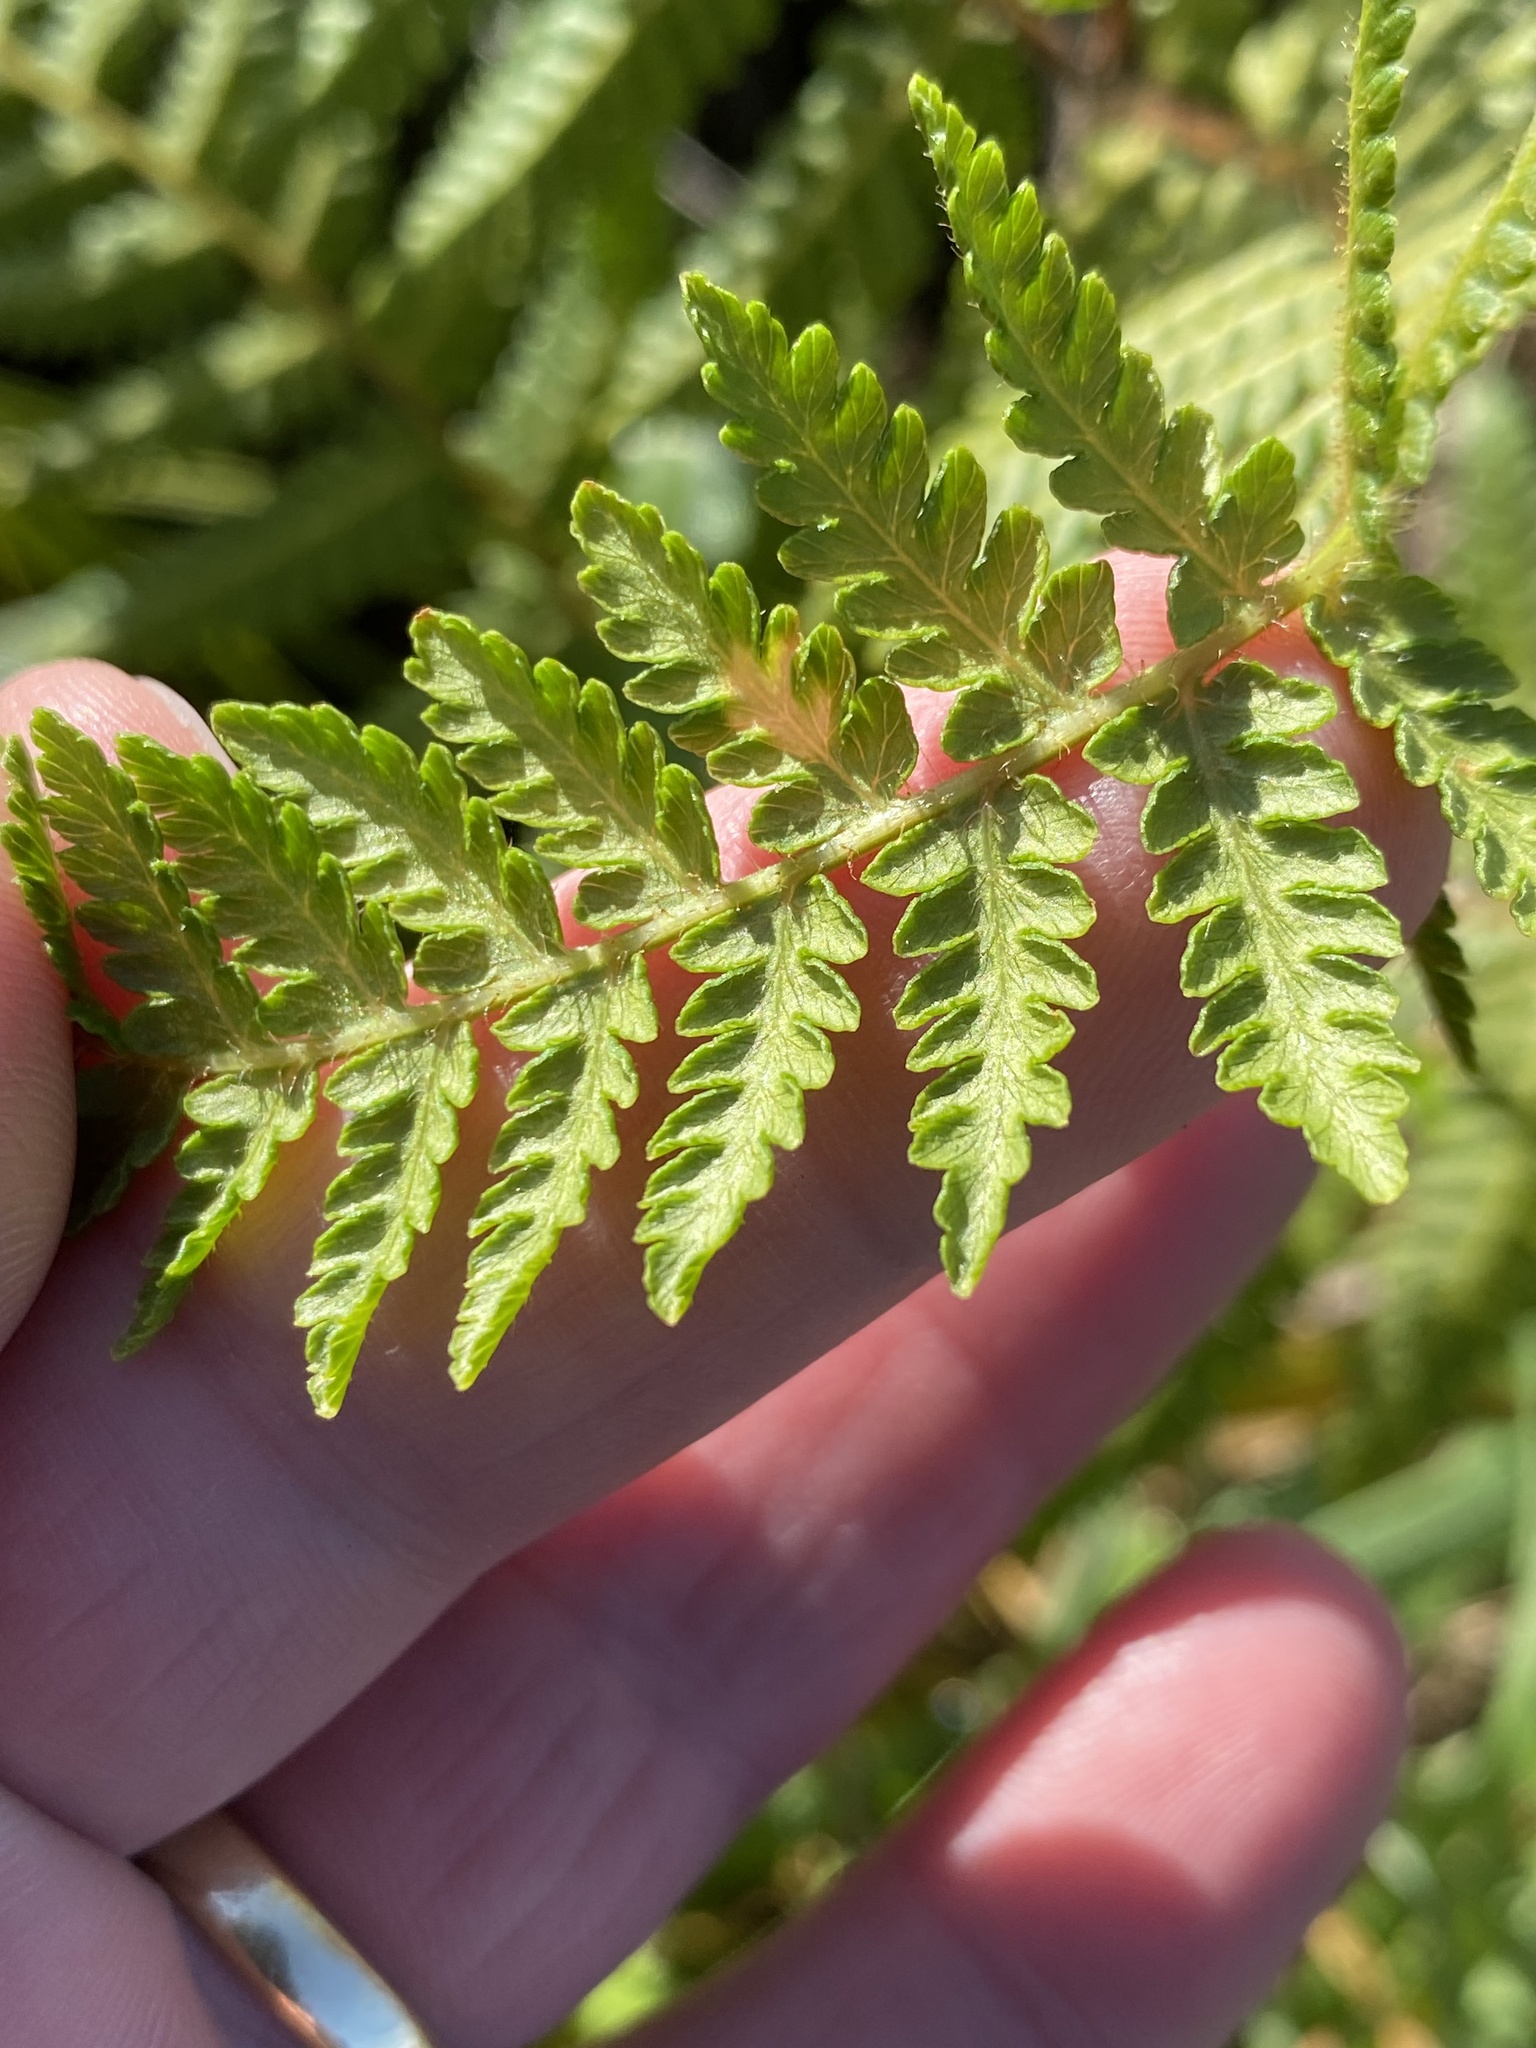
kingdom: Plantae
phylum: Tracheophyta
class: Polypodiopsida
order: Polypodiales
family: Dennstaedtiaceae
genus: Hypolepis
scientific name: Hypolepis ambigua
